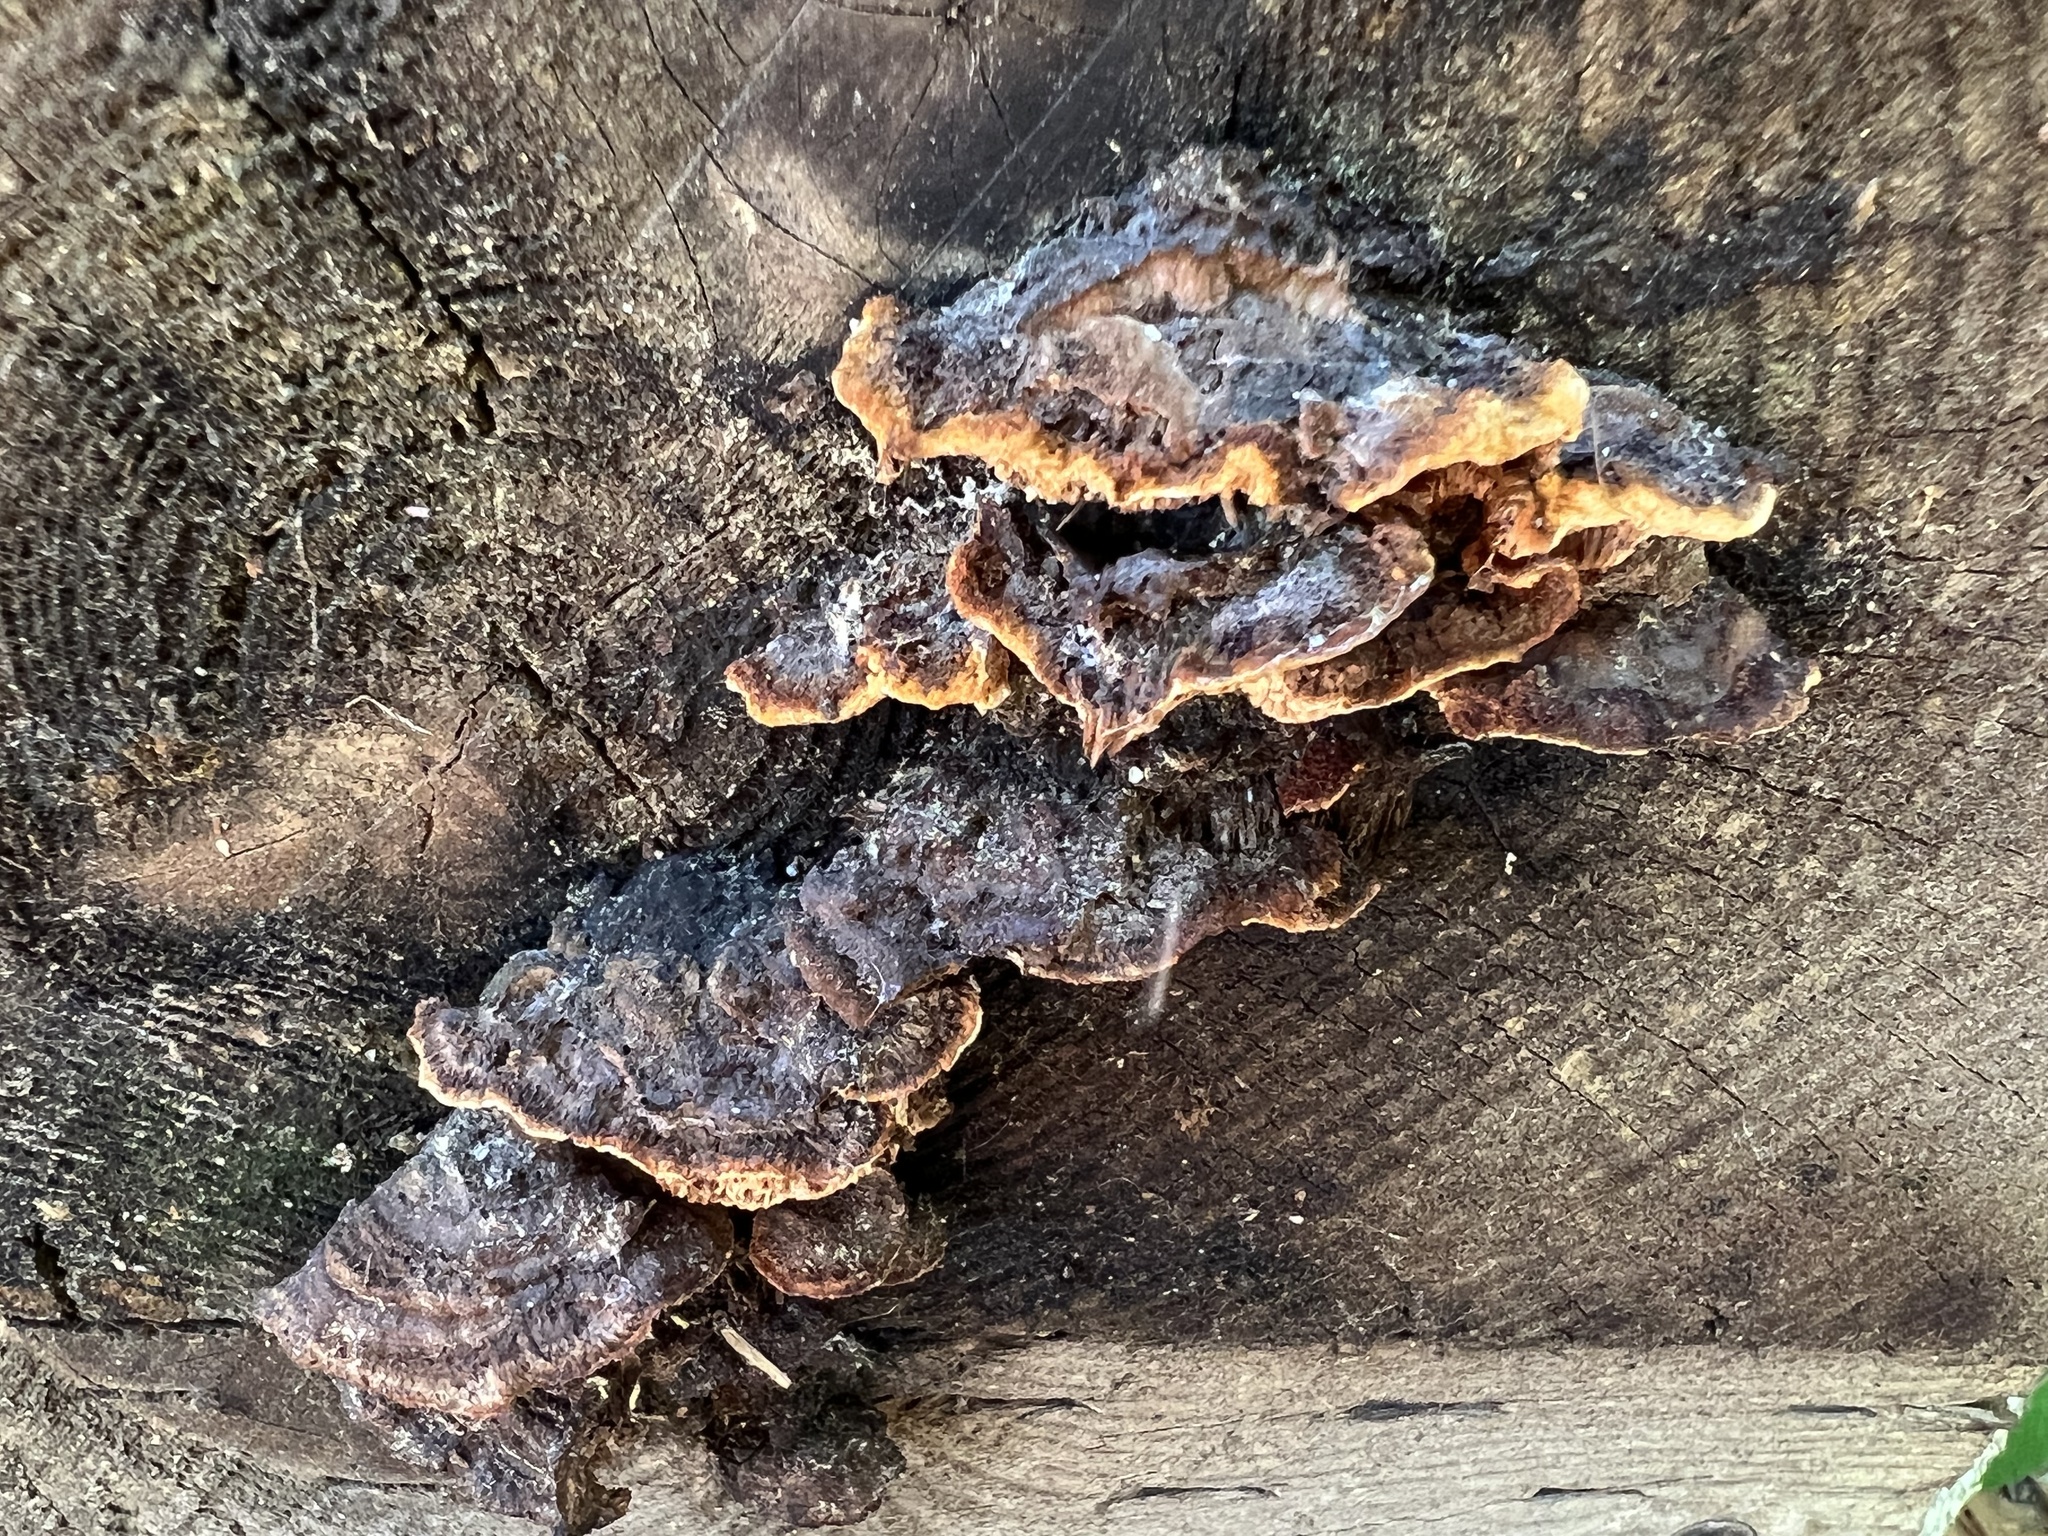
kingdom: Fungi
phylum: Basidiomycota
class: Agaricomycetes
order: Gloeophyllales
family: Gloeophyllaceae
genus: Gloeophyllum
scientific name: Gloeophyllum sepiarium
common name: Conifer mazegill
